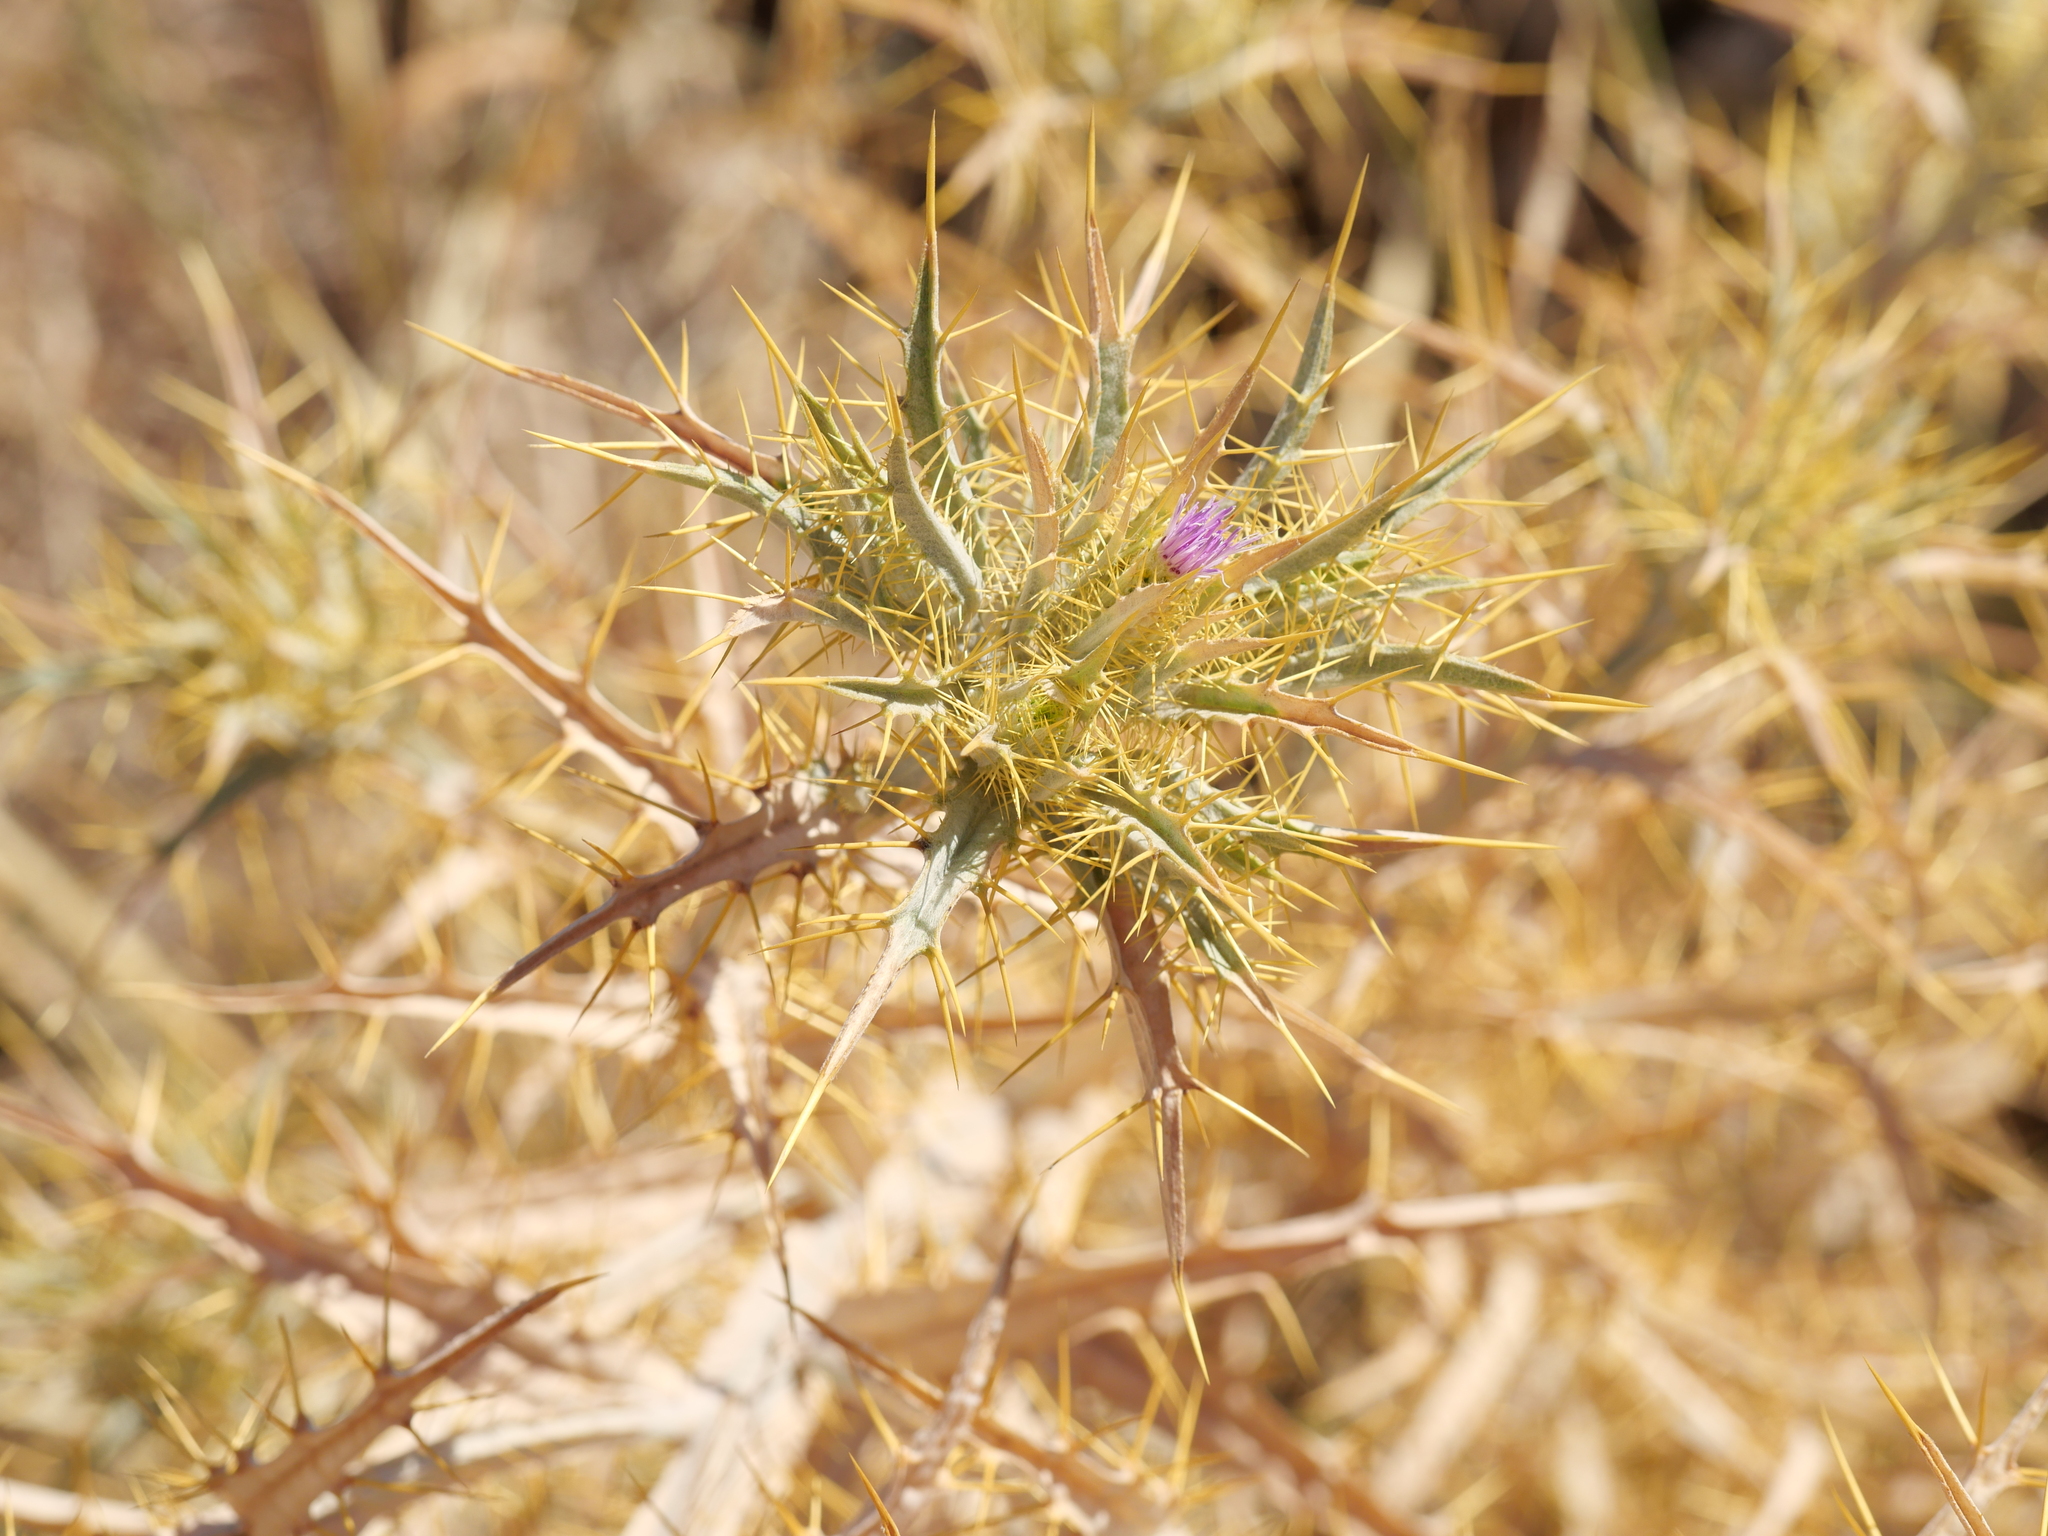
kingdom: Plantae
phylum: Tracheophyta
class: Magnoliopsida
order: Asterales
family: Asteraceae
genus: Picnomon
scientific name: Picnomon acarna
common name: Soldier thistle
